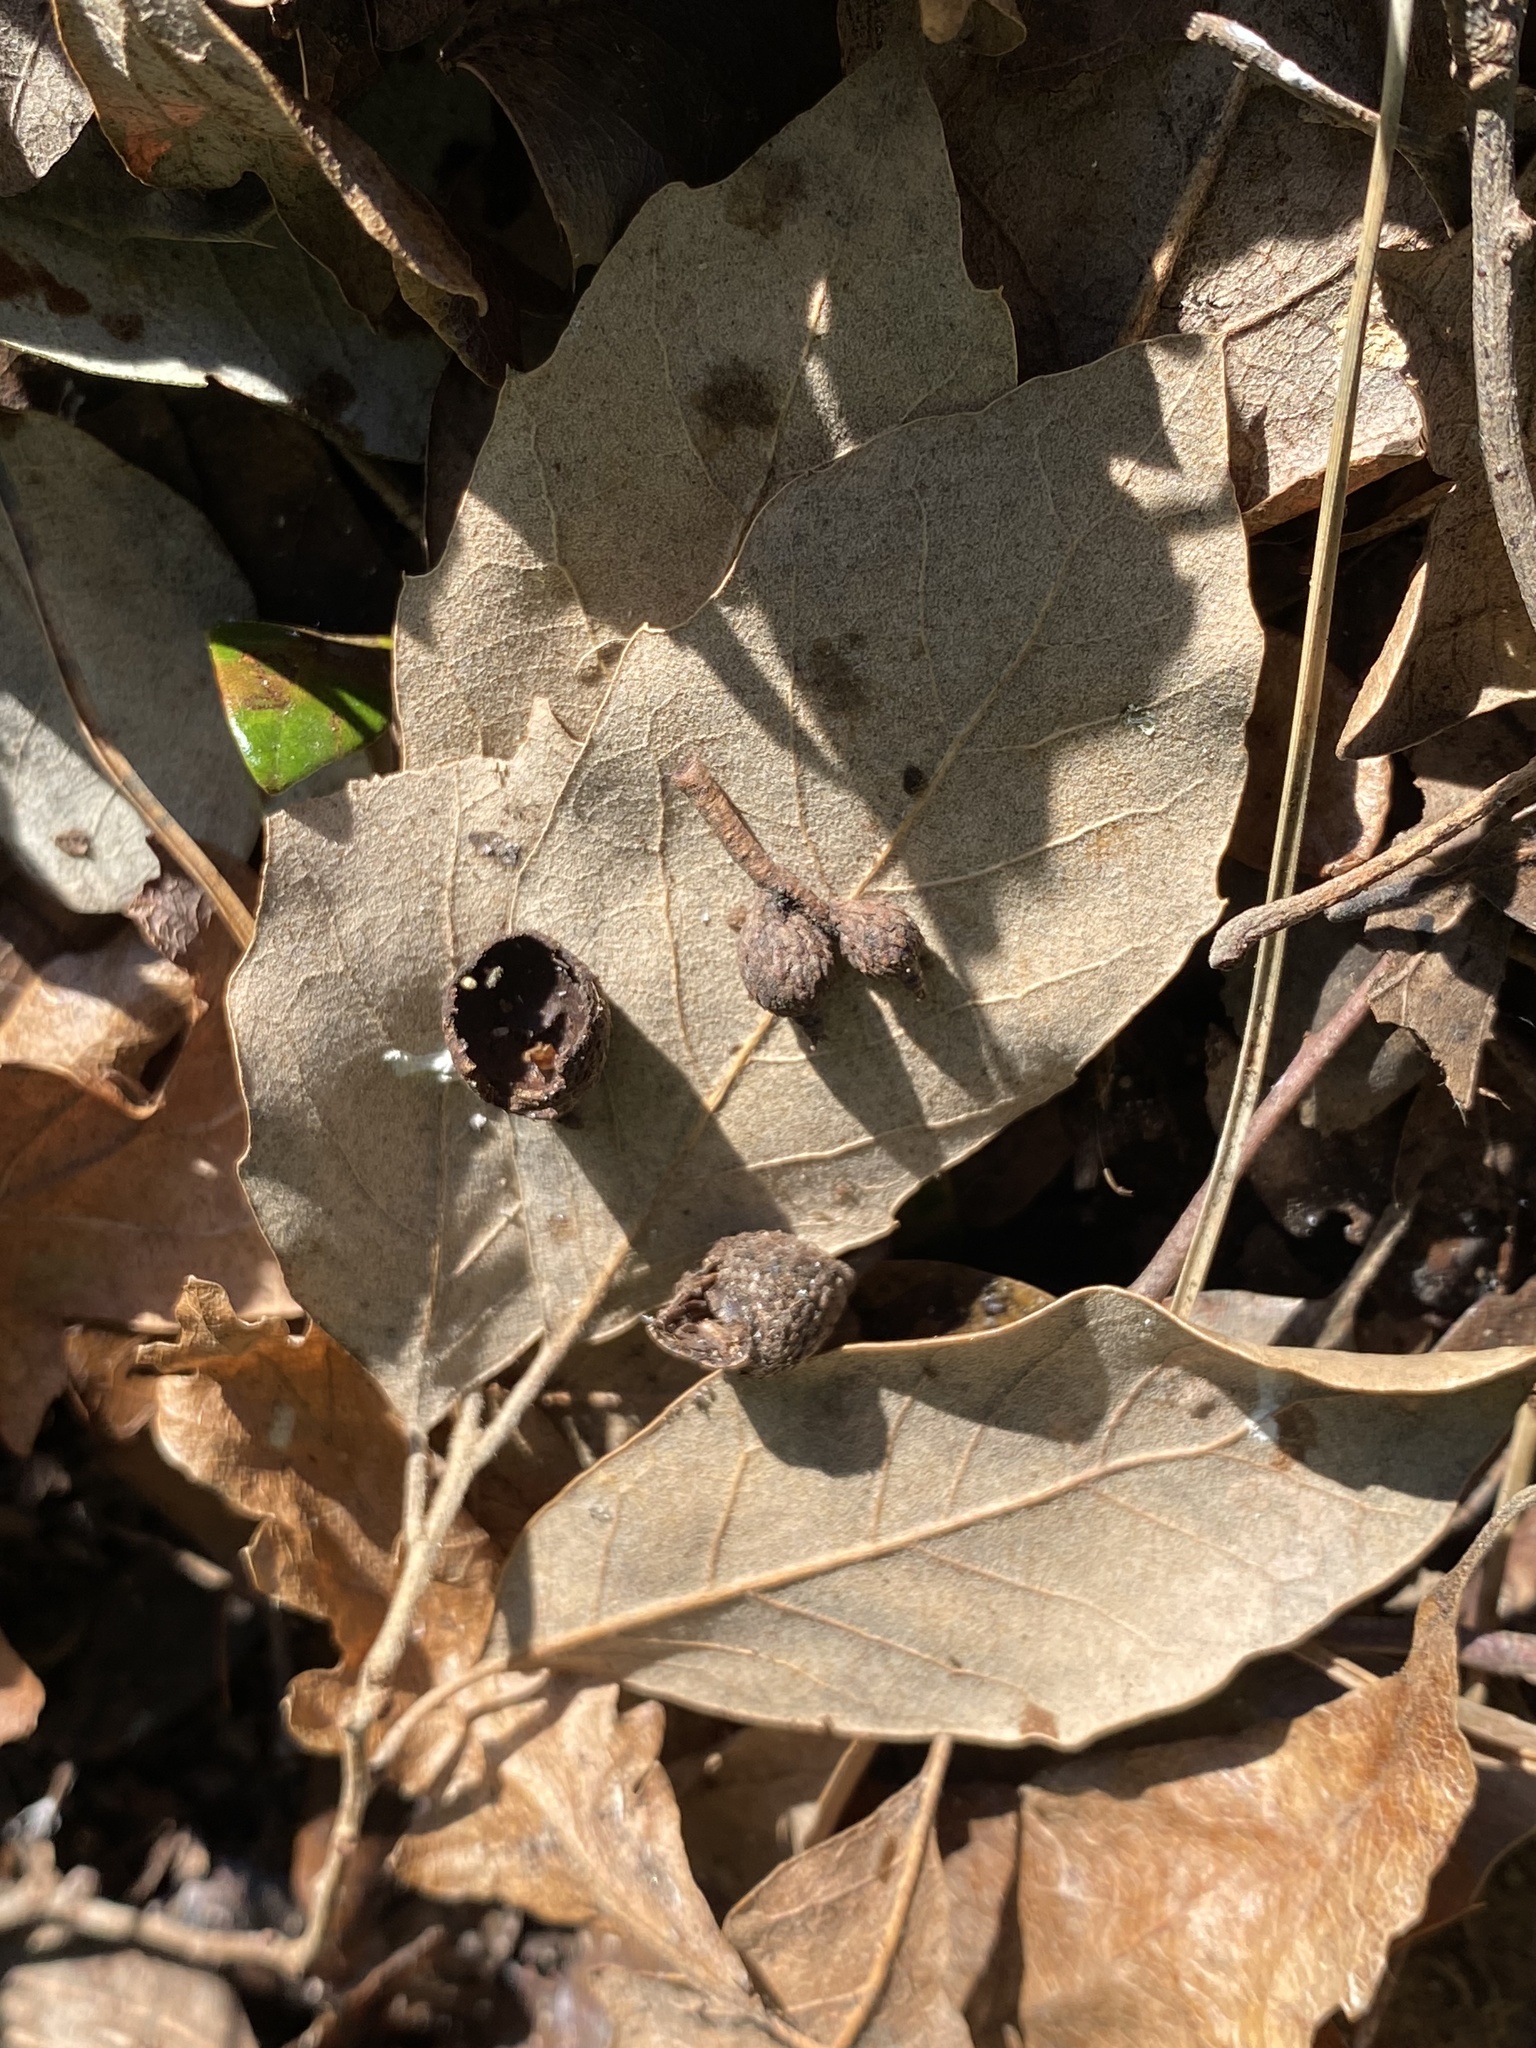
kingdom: Plantae
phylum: Tracheophyta
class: Magnoliopsida
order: Fagales
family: Fagaceae
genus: Quercus
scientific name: Quercus ilex
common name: Evergreen oak
